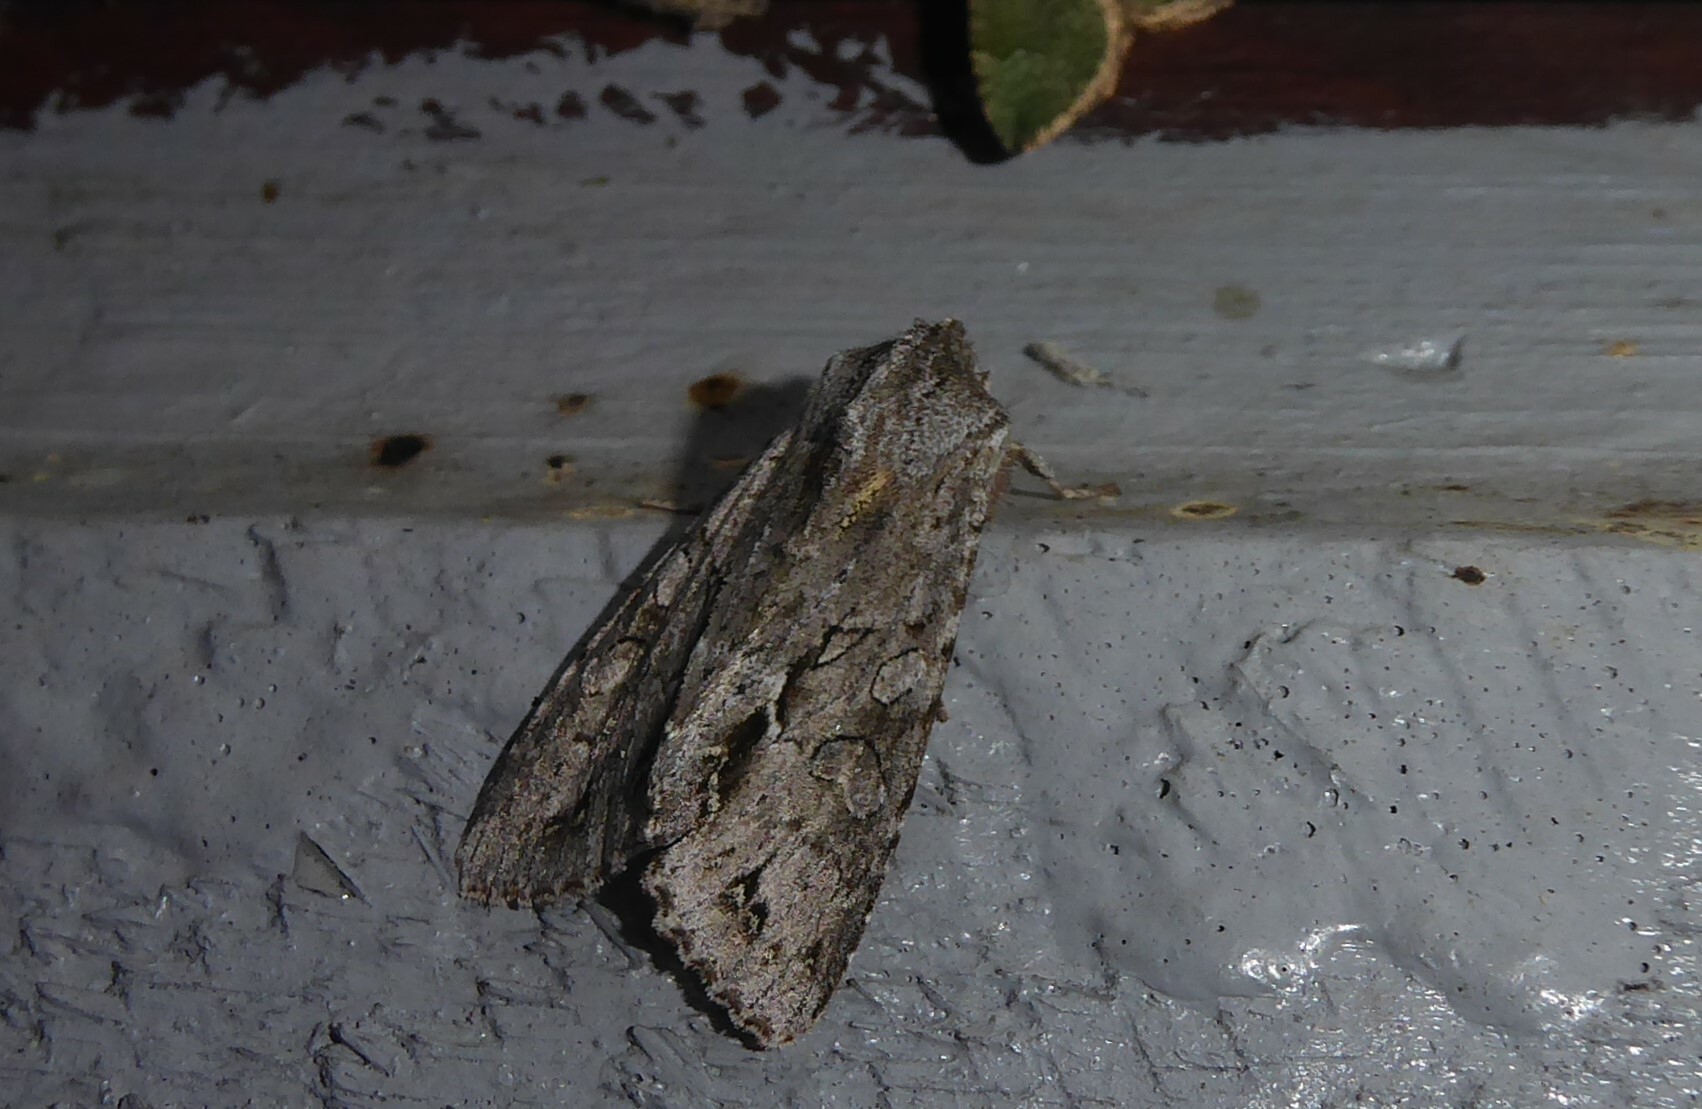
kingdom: Animalia
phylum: Arthropoda
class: Insecta
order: Lepidoptera
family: Noctuidae
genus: Ichneutica
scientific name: Ichneutica
